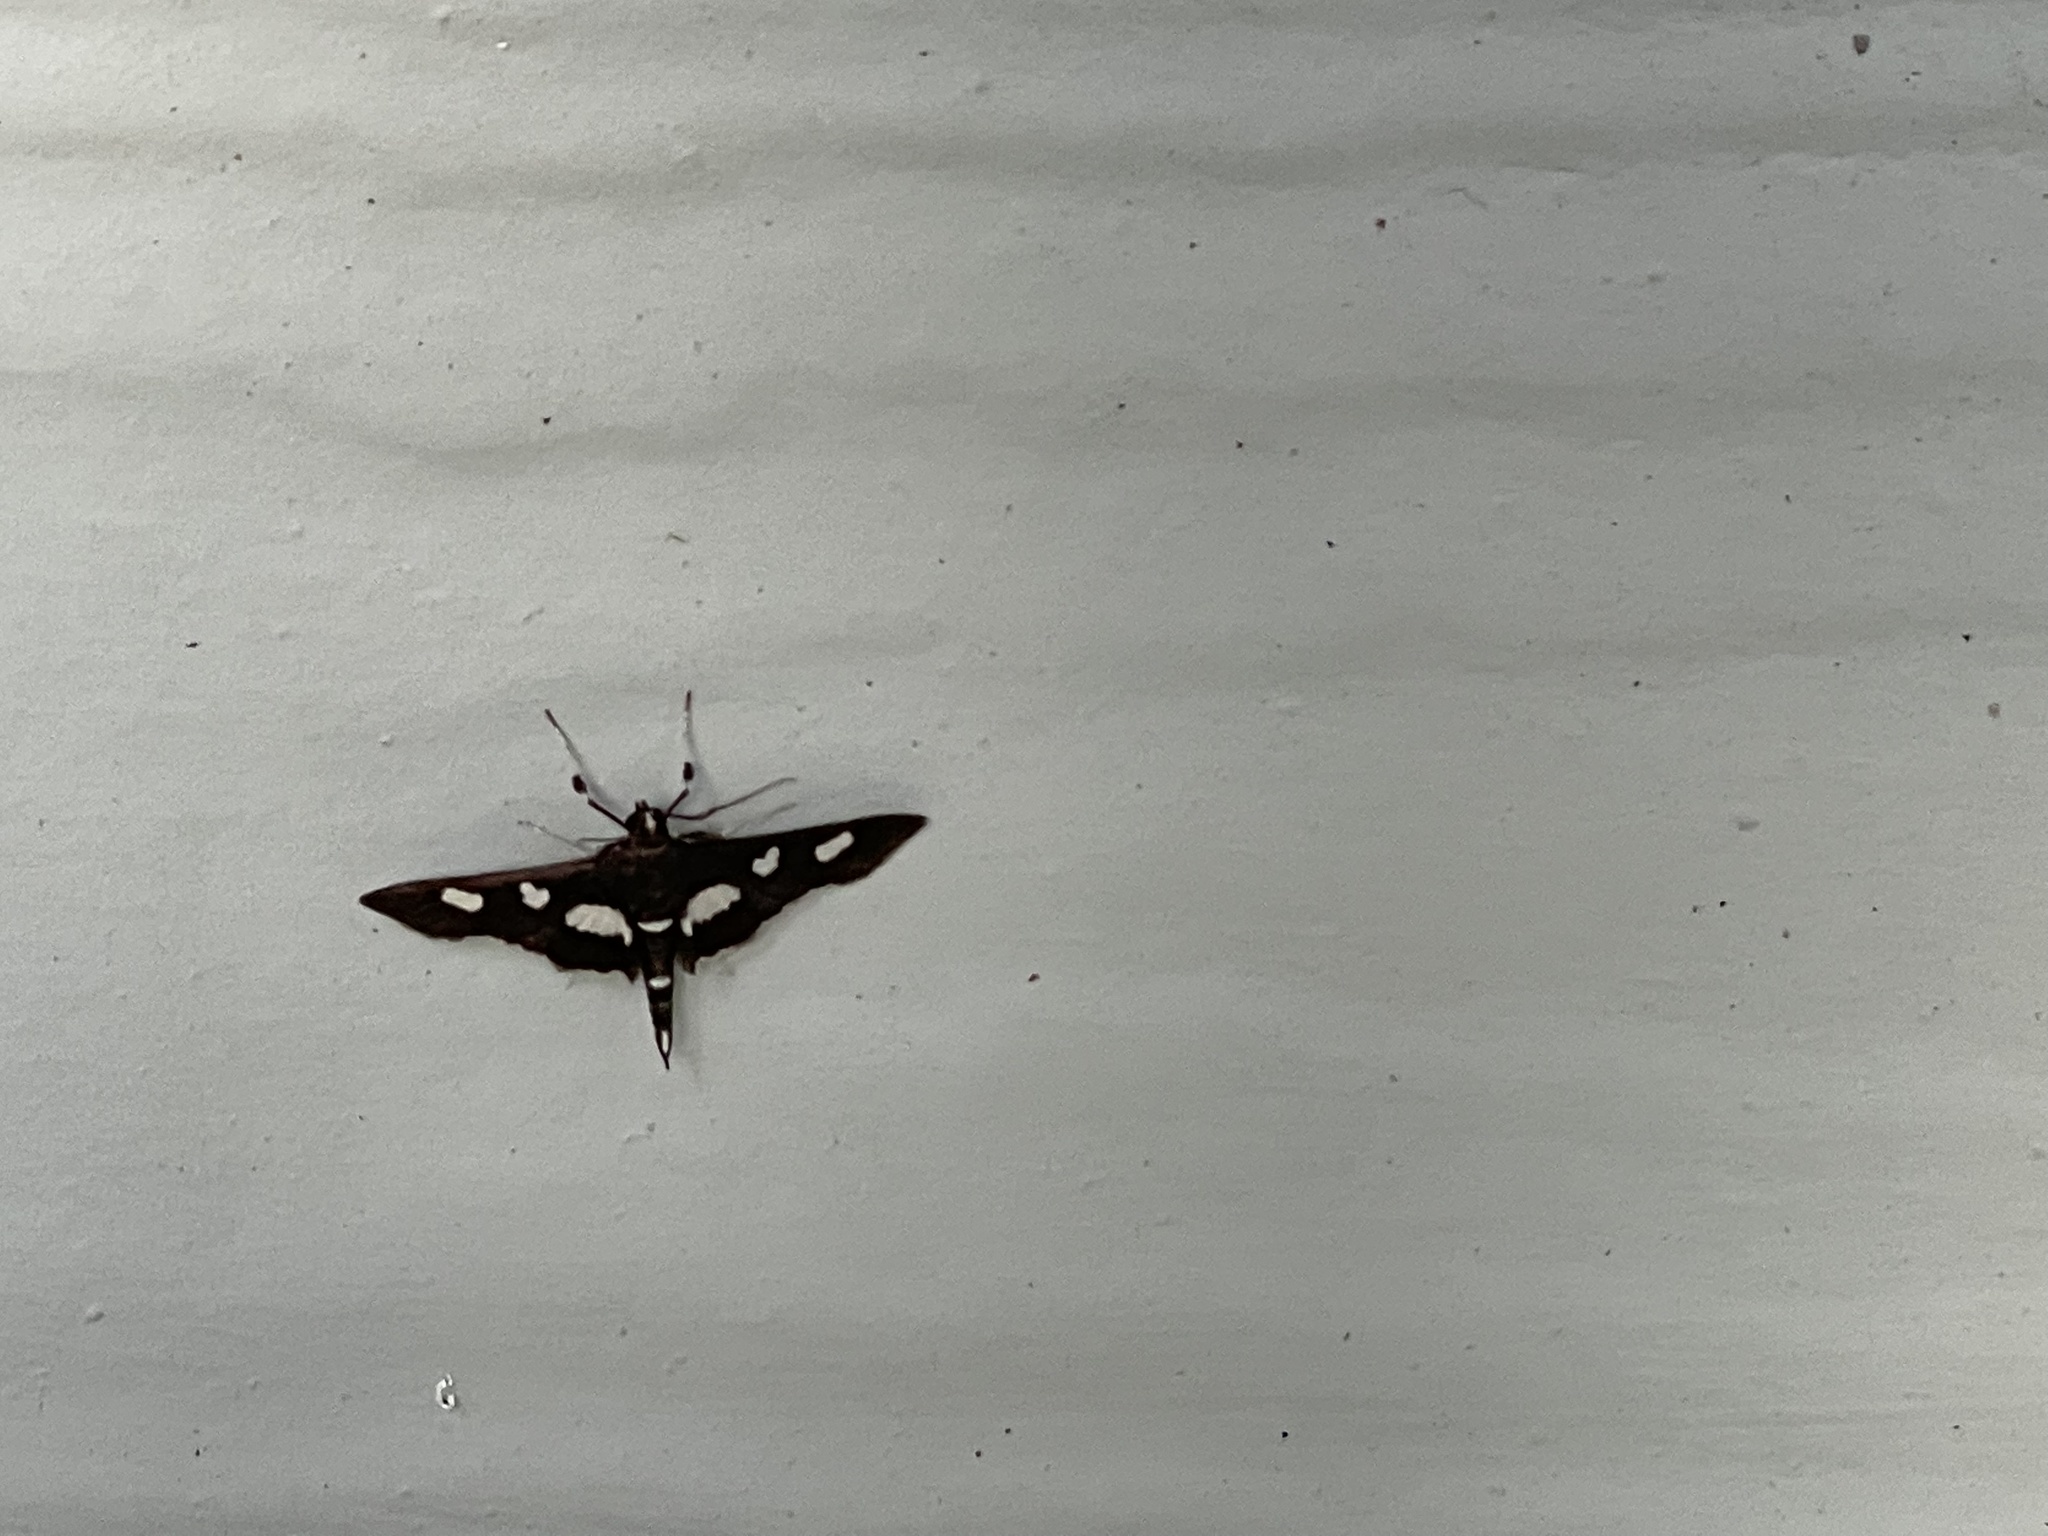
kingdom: Animalia
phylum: Arthropoda
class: Insecta
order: Lepidoptera
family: Crambidae
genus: Desmia
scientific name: Desmia
